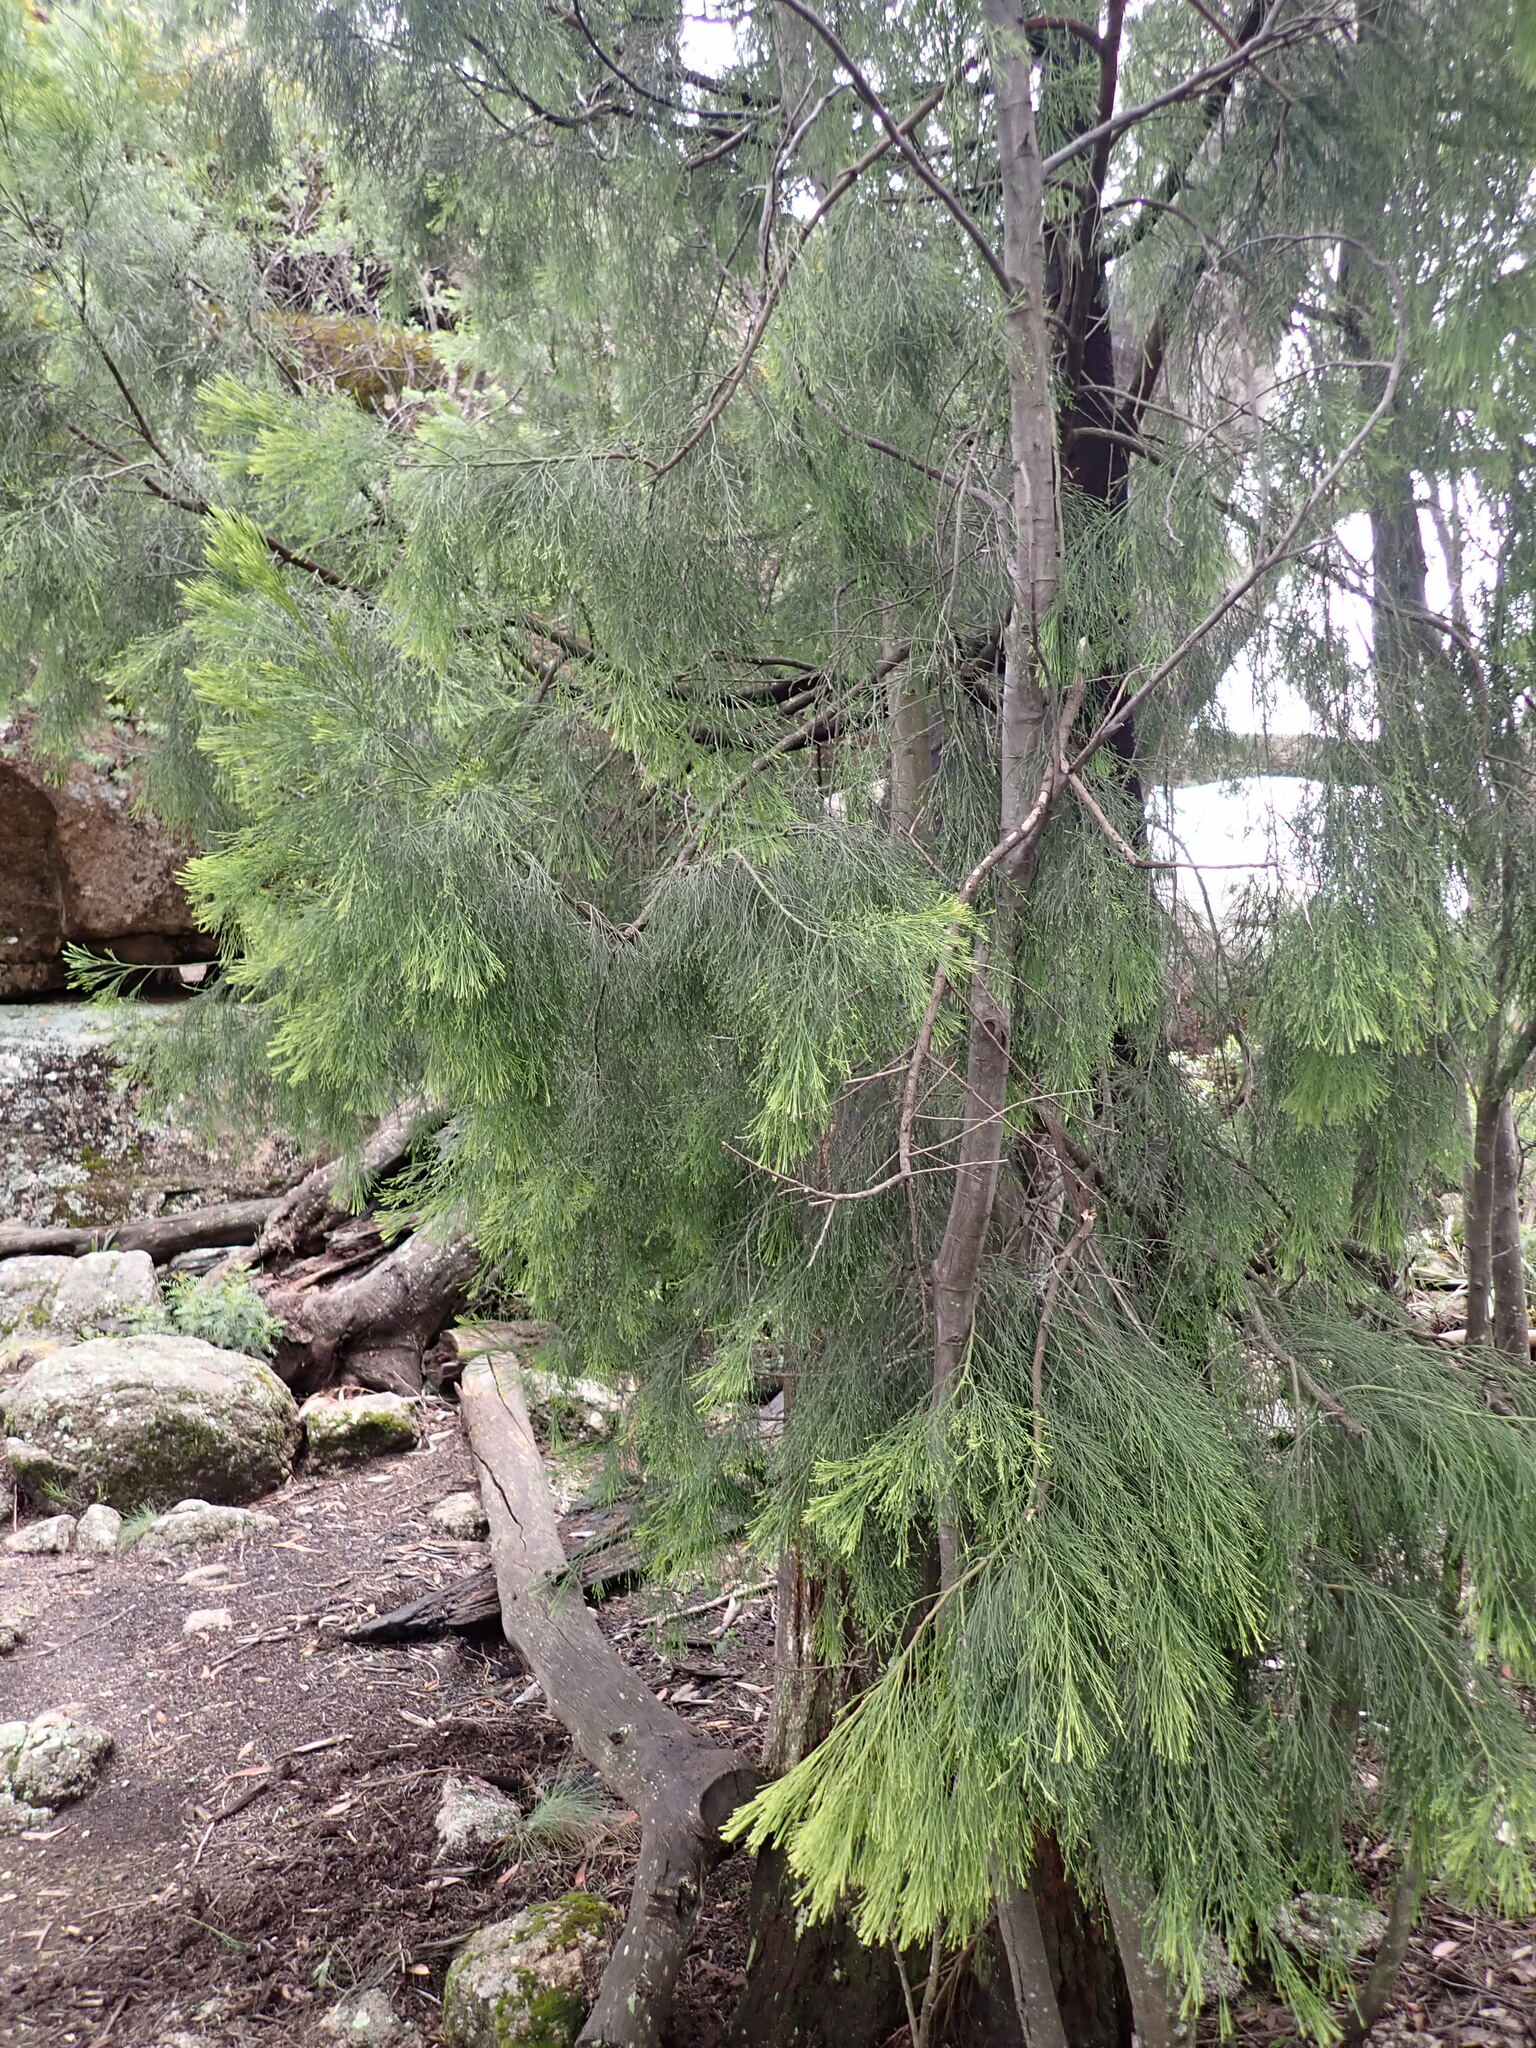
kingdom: Plantae
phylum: Tracheophyta
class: Magnoliopsida
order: Santalales
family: Santalaceae
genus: Exocarpos
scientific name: Exocarpos cupressiformis
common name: Cherry ballart
